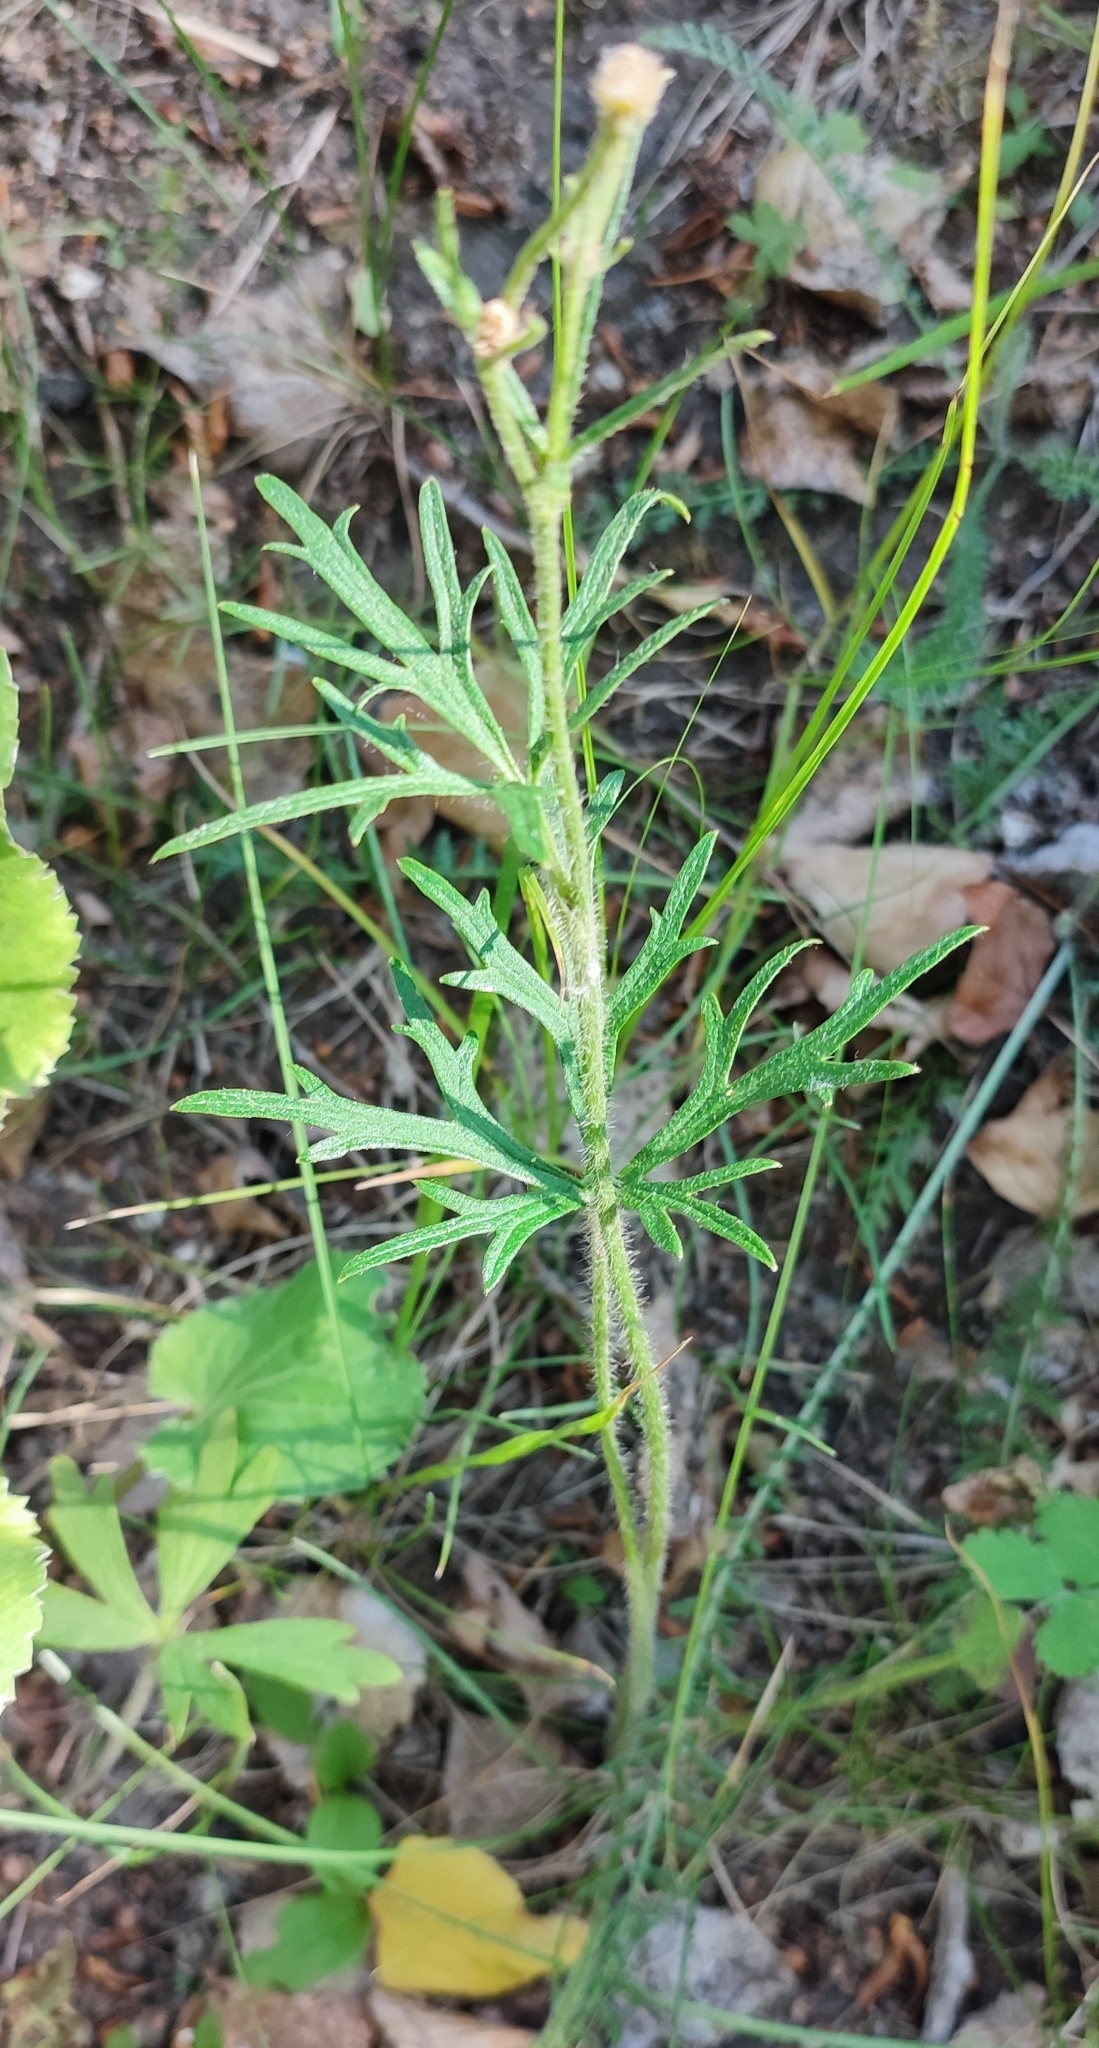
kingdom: Plantae
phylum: Tracheophyta
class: Magnoliopsida
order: Ranunculales
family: Ranunculaceae
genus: Ranunculus
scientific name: Ranunculus polyanthemos
